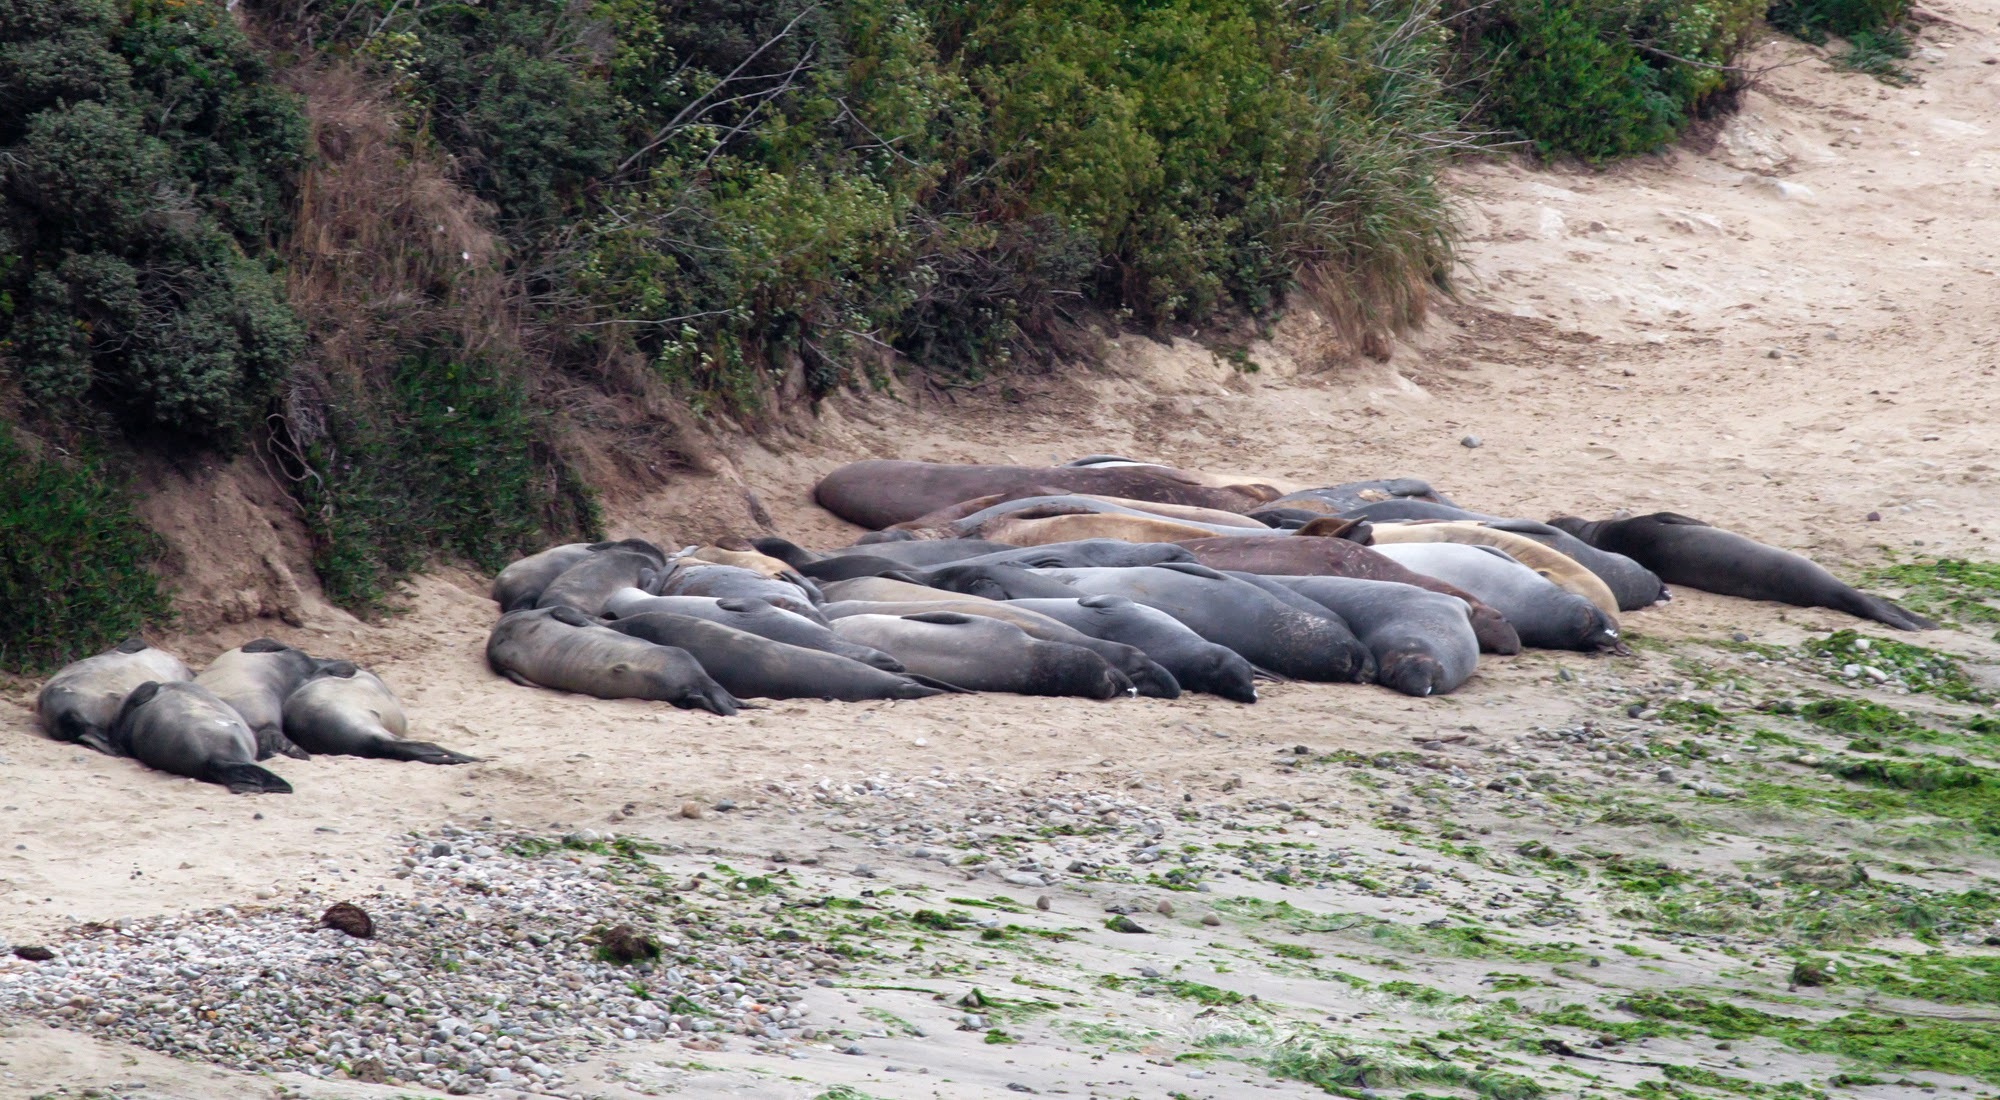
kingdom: Animalia
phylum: Chordata
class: Mammalia
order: Carnivora
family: Phocidae
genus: Mirounga
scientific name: Mirounga angustirostris
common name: Northern elephant seal
